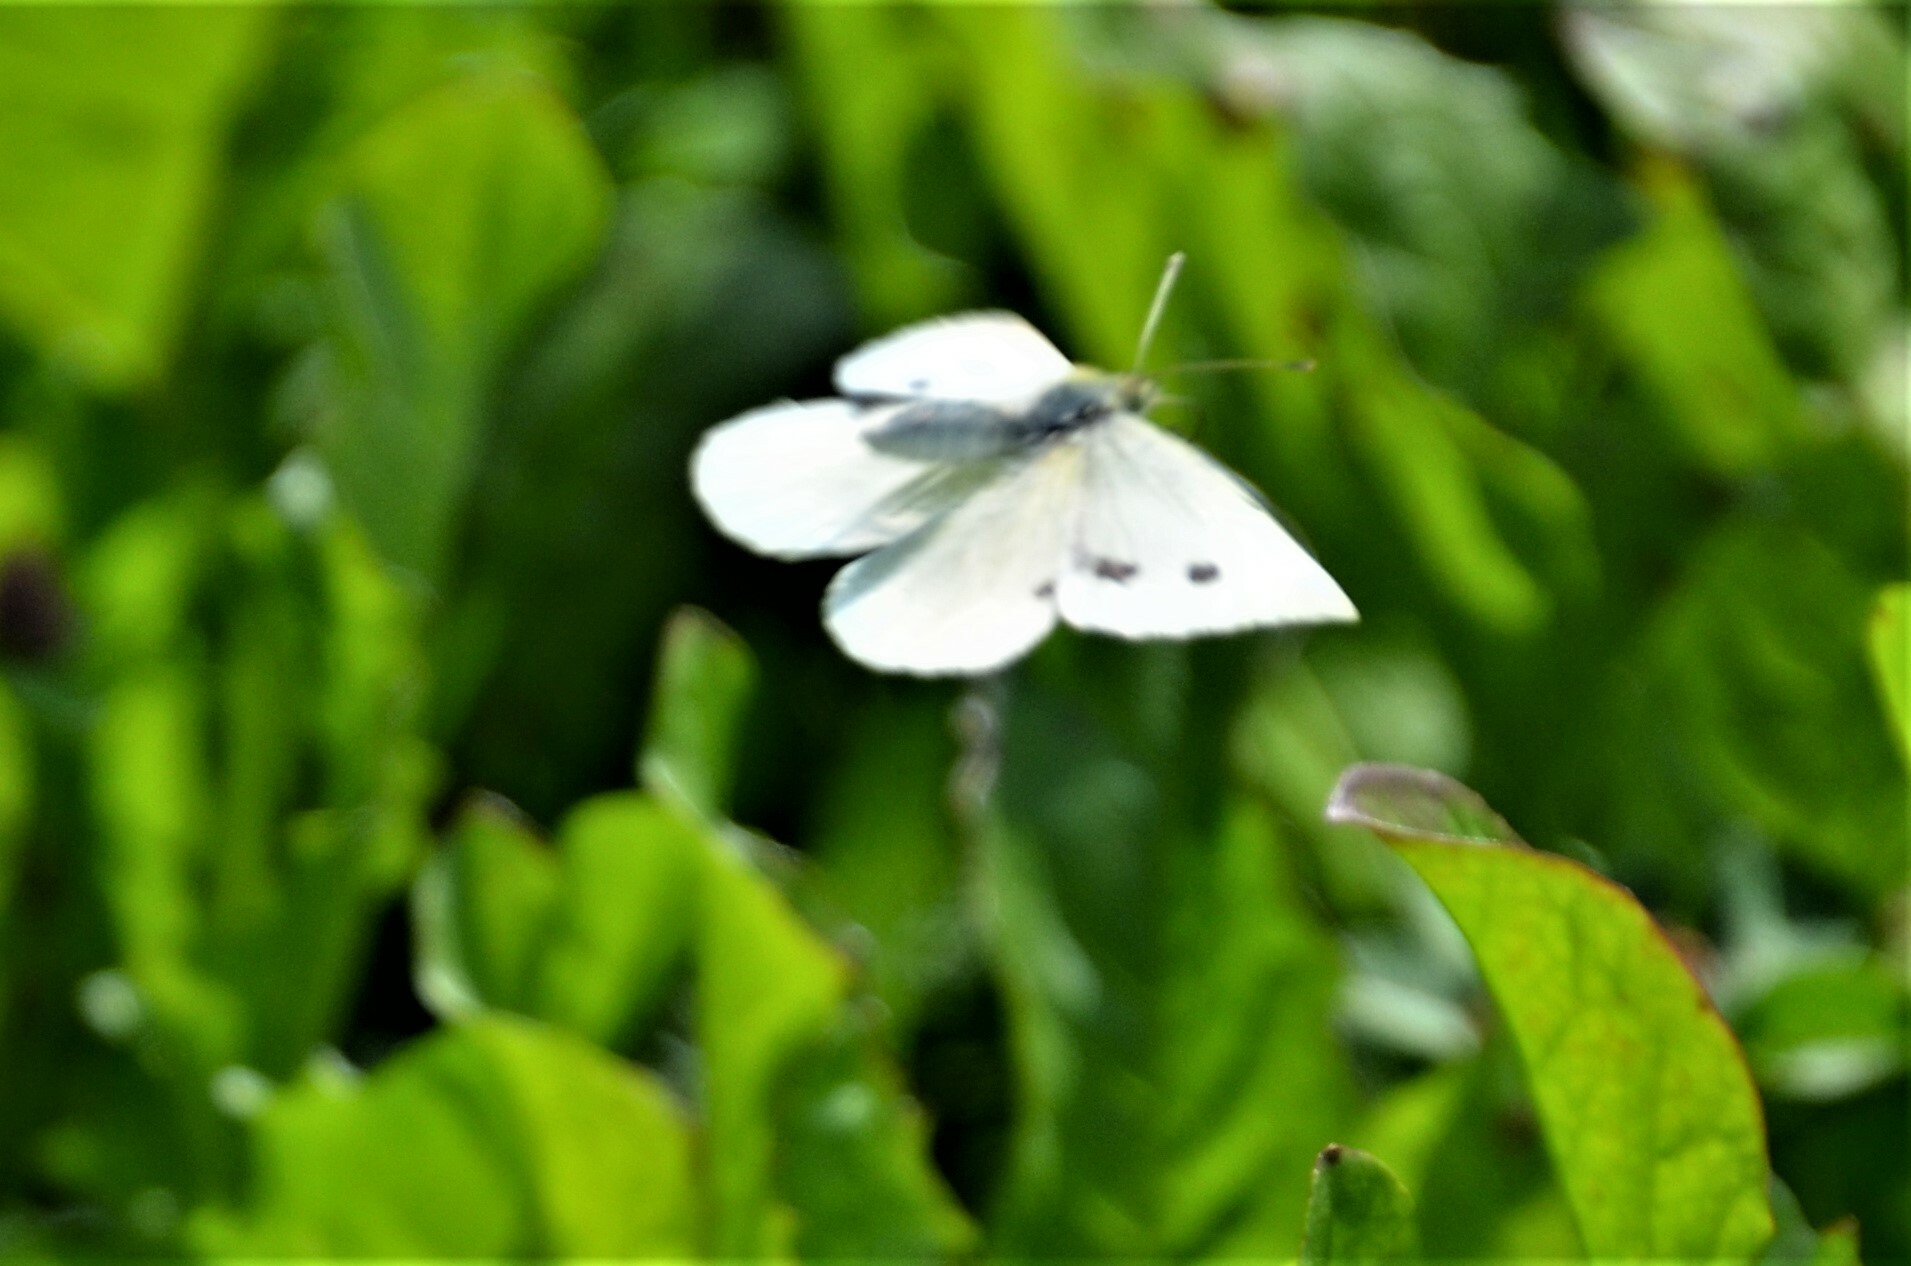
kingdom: Animalia
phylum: Arthropoda
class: Insecta
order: Lepidoptera
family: Pieridae
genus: Pieris
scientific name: Pieris rapae
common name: Small white
